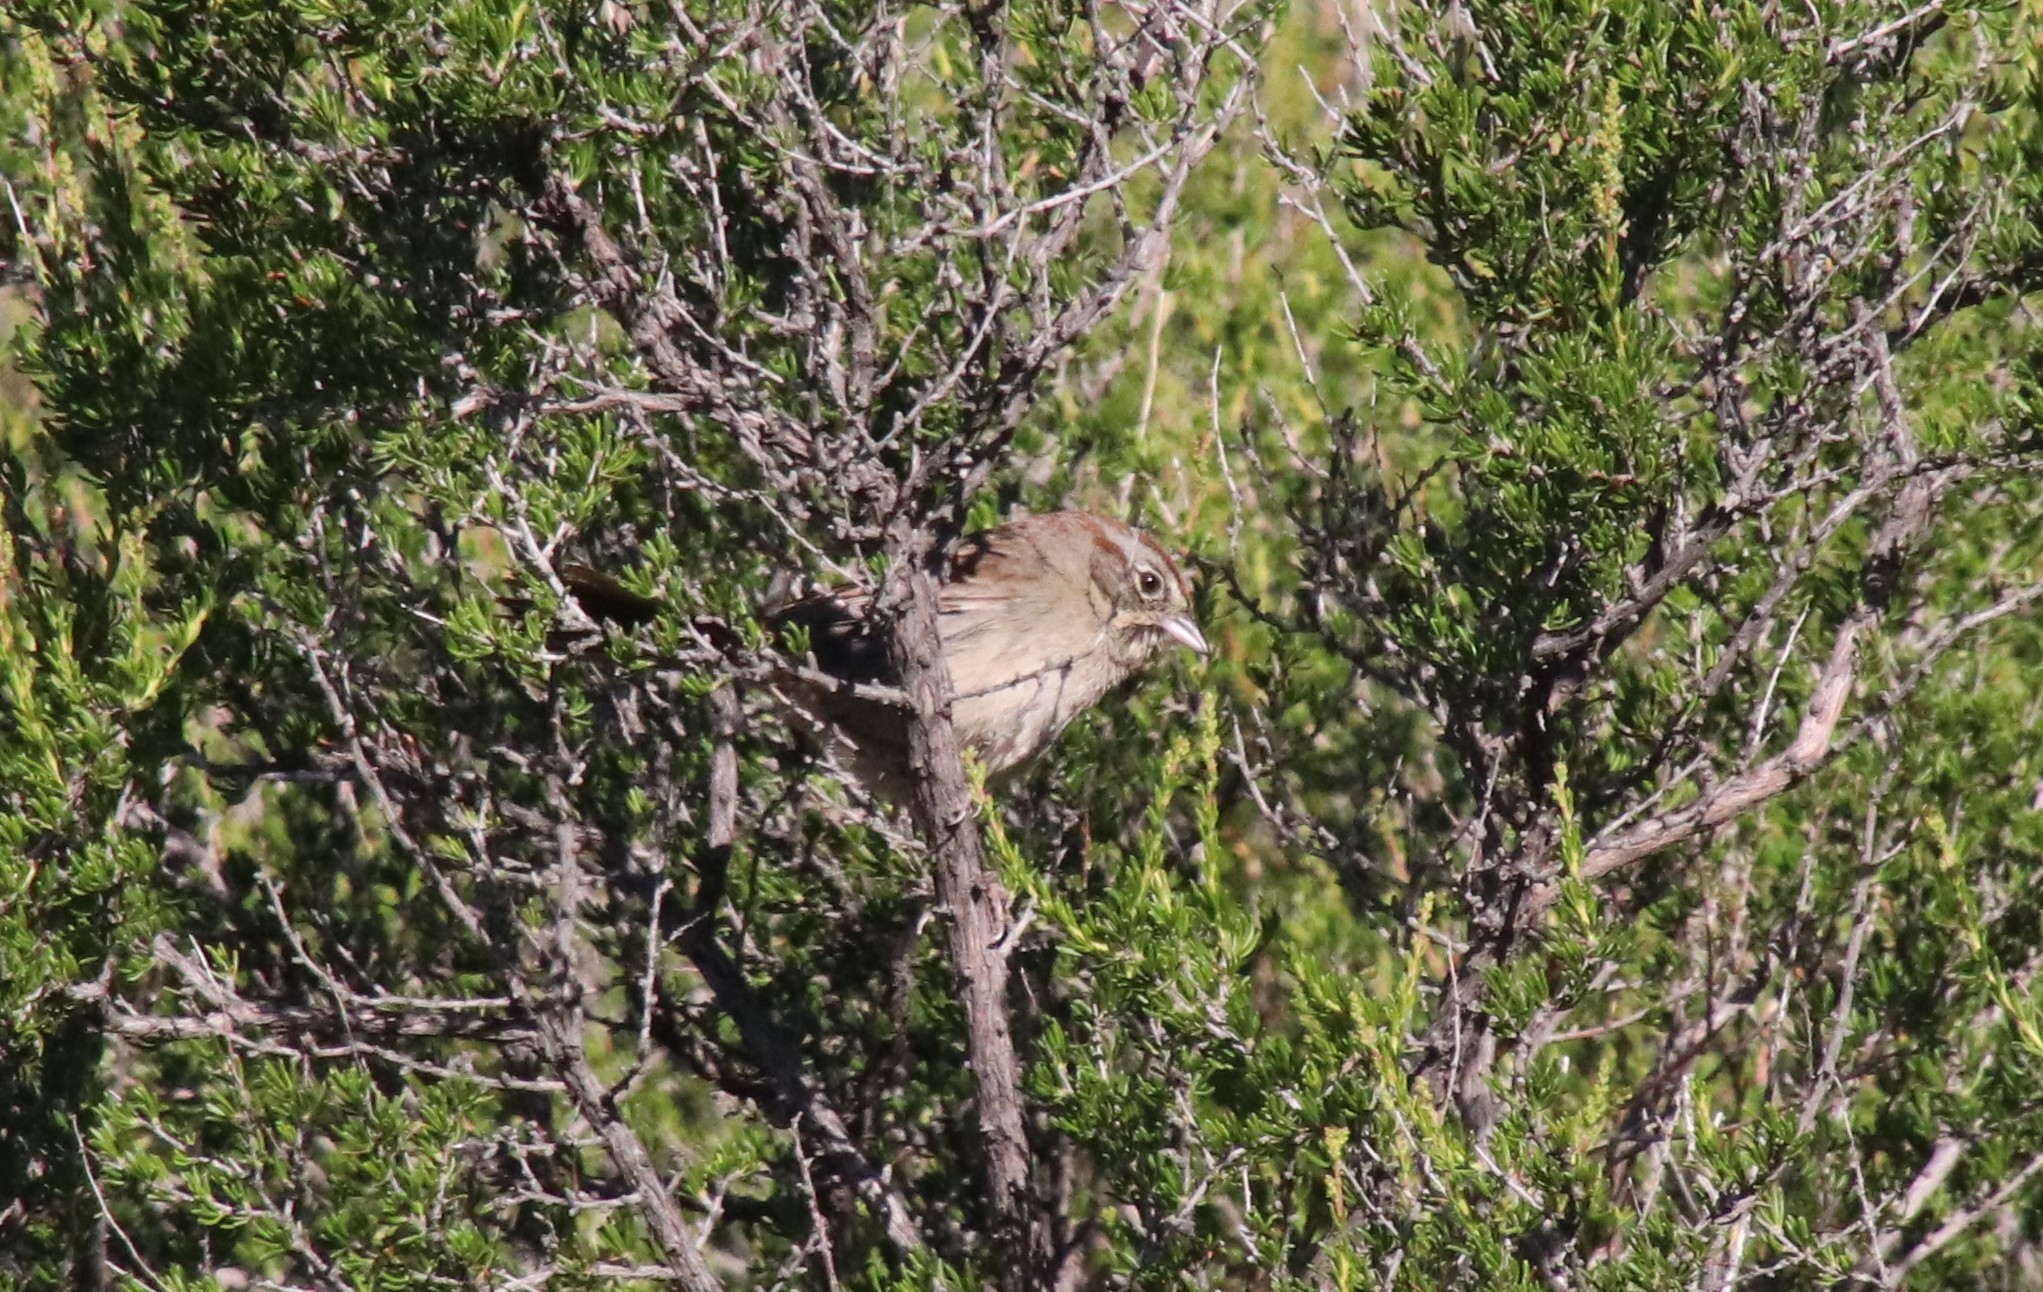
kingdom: Animalia
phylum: Chordata
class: Aves
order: Passeriformes
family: Passerellidae
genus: Aimophila
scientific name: Aimophila ruficeps
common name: Rufous-crowned sparrow
